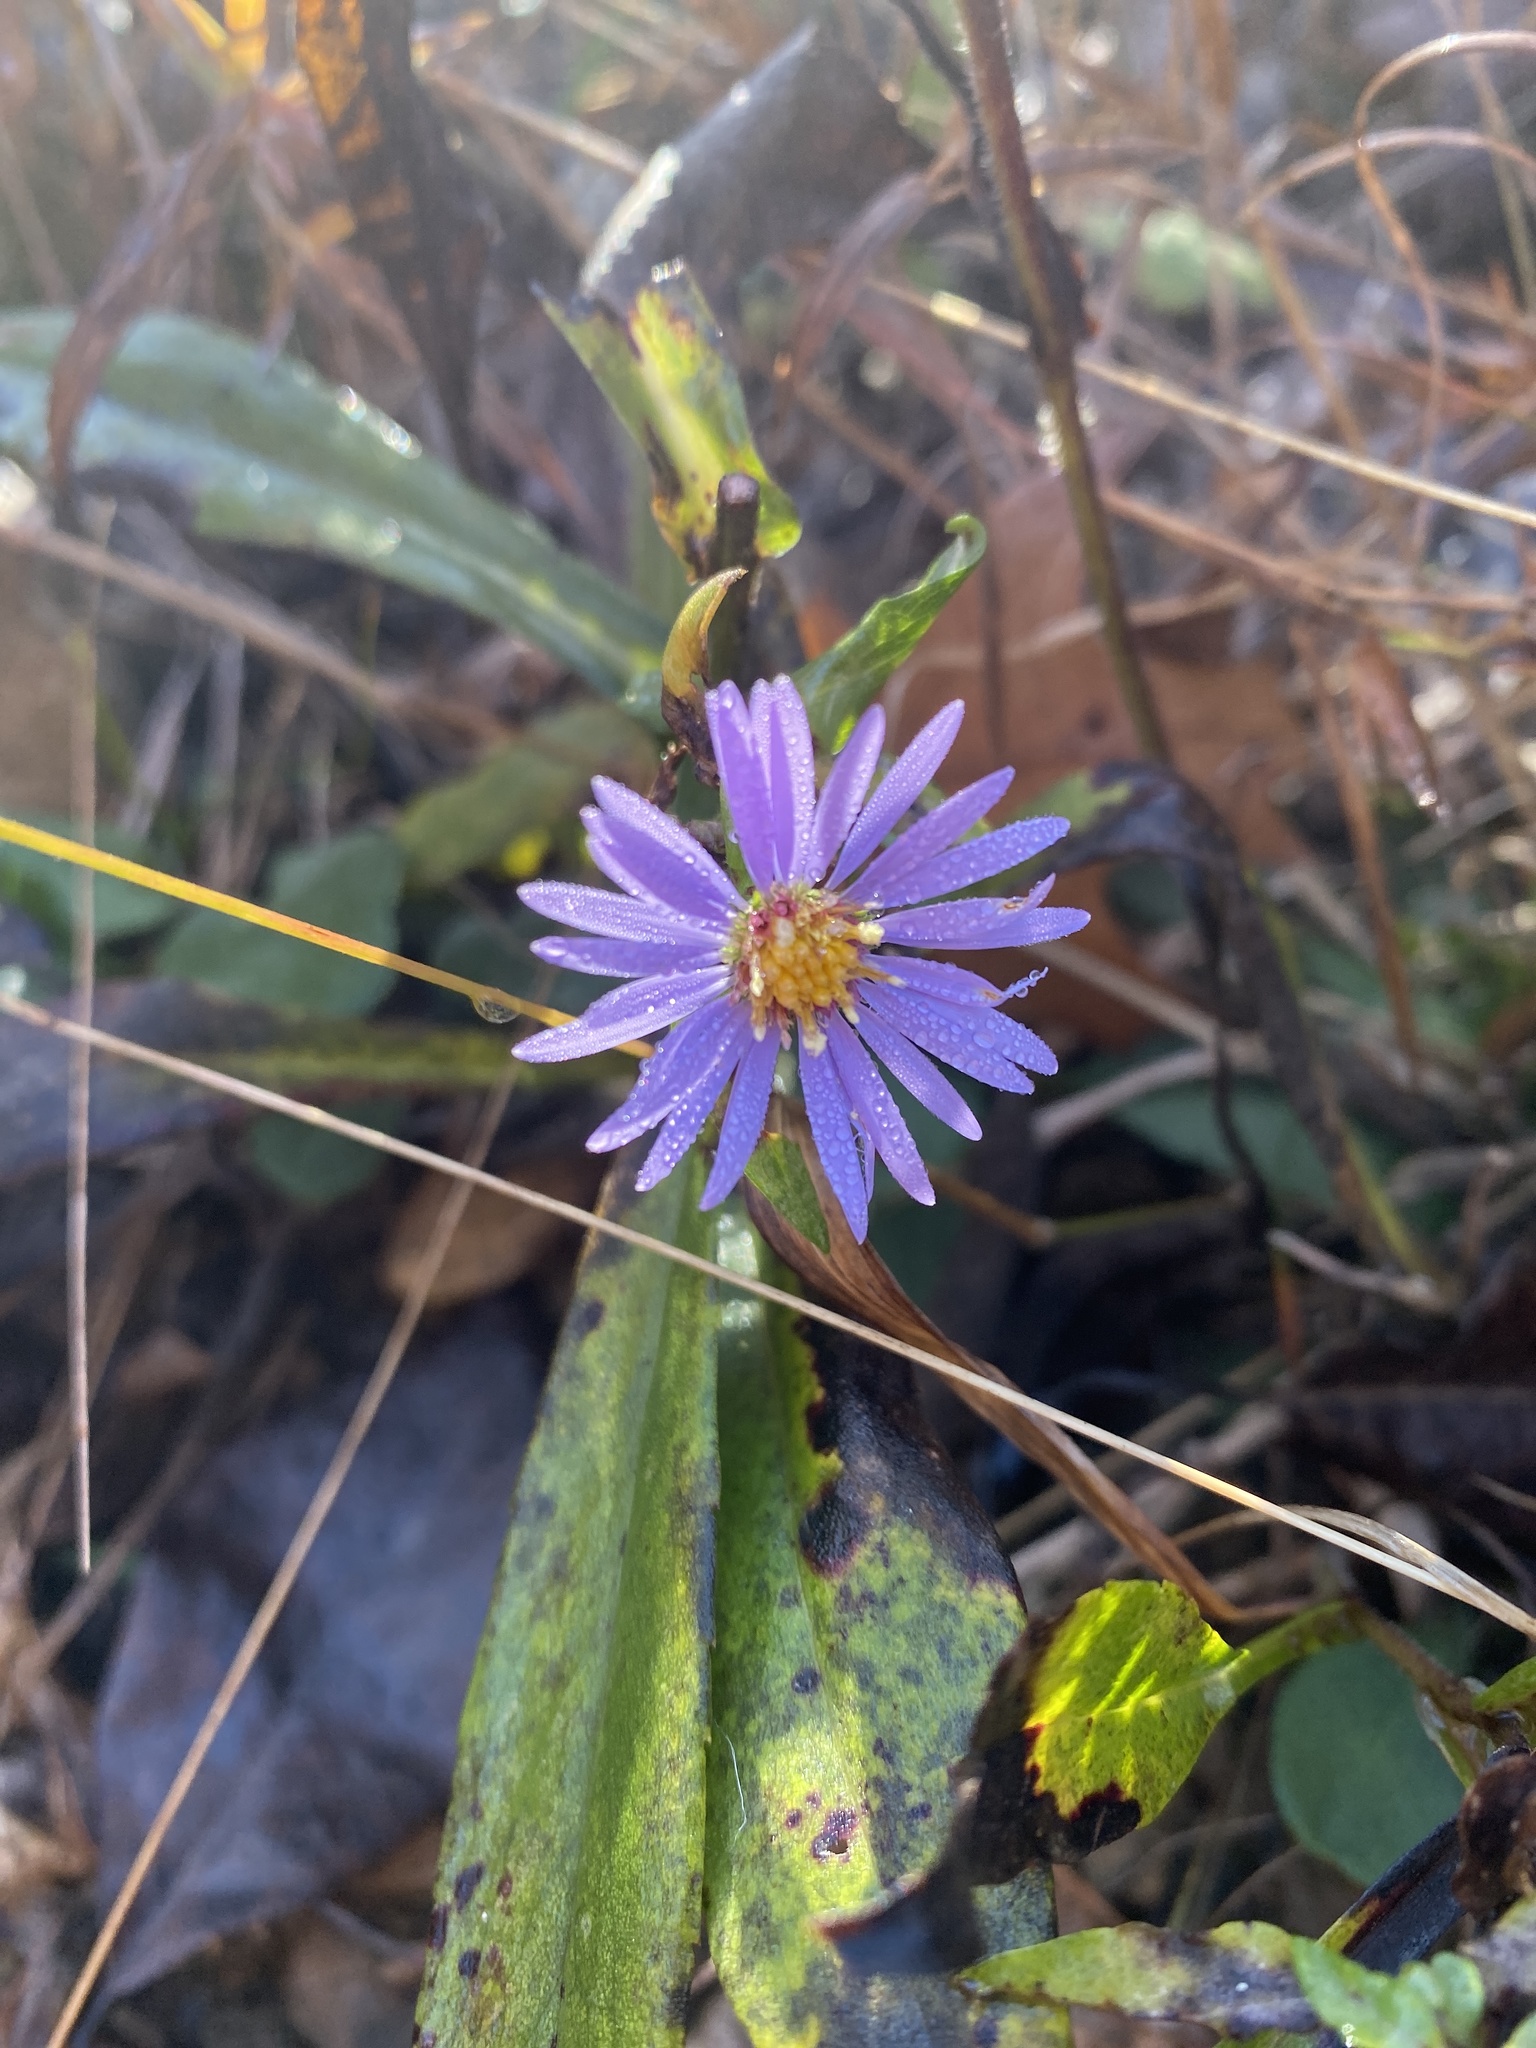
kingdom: Plantae
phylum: Tracheophyta
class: Magnoliopsida
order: Asterales
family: Asteraceae
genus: Symphyotrichum
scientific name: Symphyotrichum rhiannon
